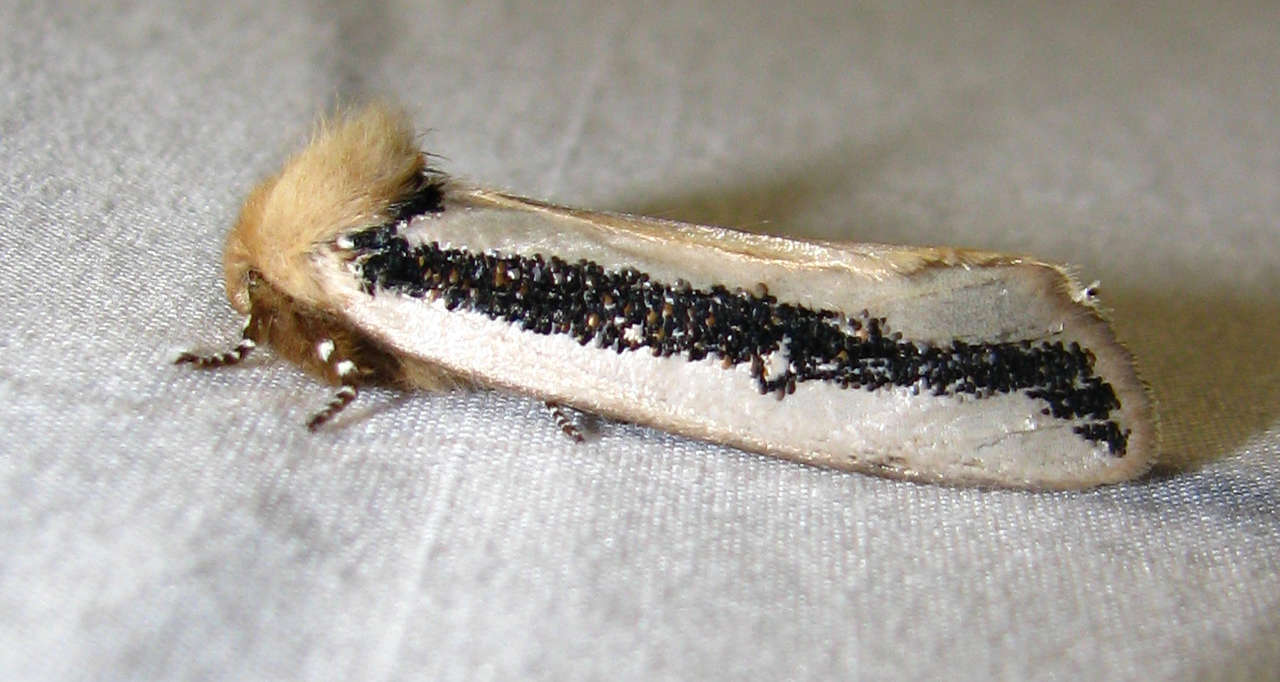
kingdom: Animalia
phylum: Arthropoda
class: Insecta
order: Lepidoptera
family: Oenosandridae
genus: Oenosandra
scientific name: Oenosandra boisduvalii
